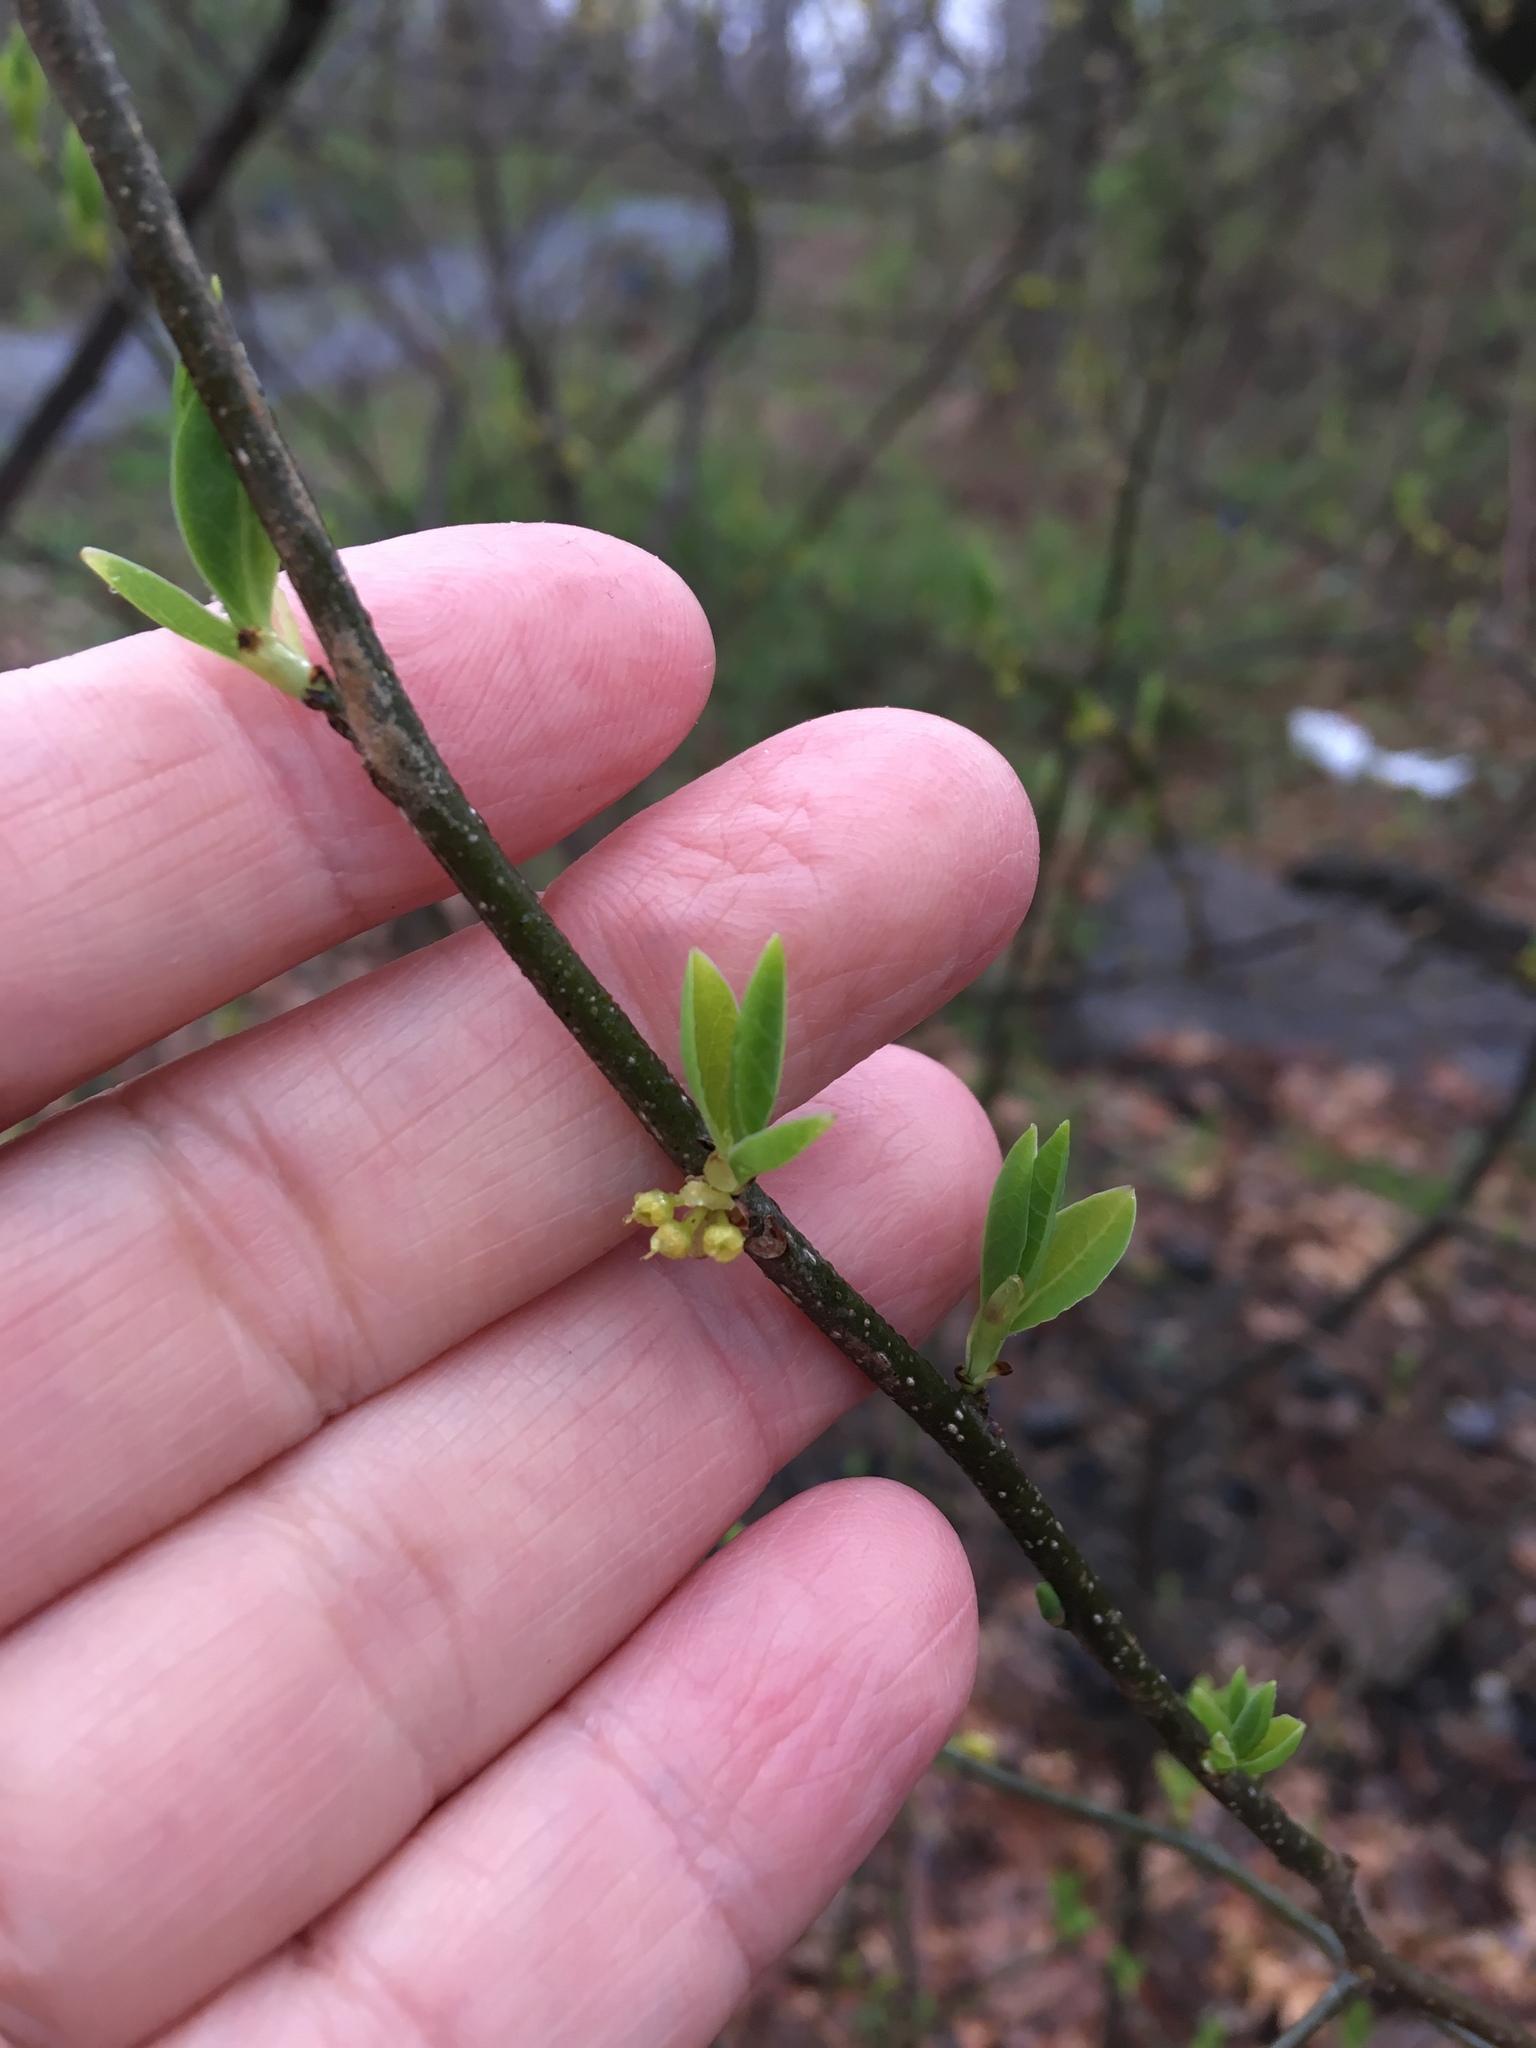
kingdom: Plantae
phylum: Tracheophyta
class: Magnoliopsida
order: Laurales
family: Lauraceae
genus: Lindera
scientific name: Lindera benzoin
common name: Spicebush
